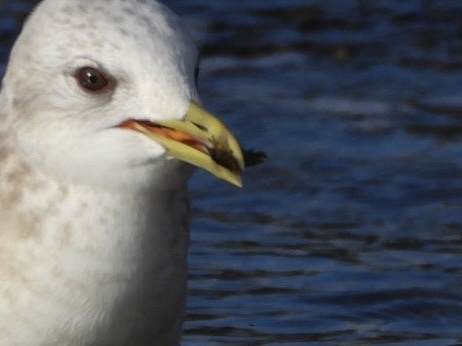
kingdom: Animalia
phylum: Arthropoda
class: Malacostraca
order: Isopoda
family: Idoteidae
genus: Pentidotea
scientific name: Pentidotea wosnesenskii
